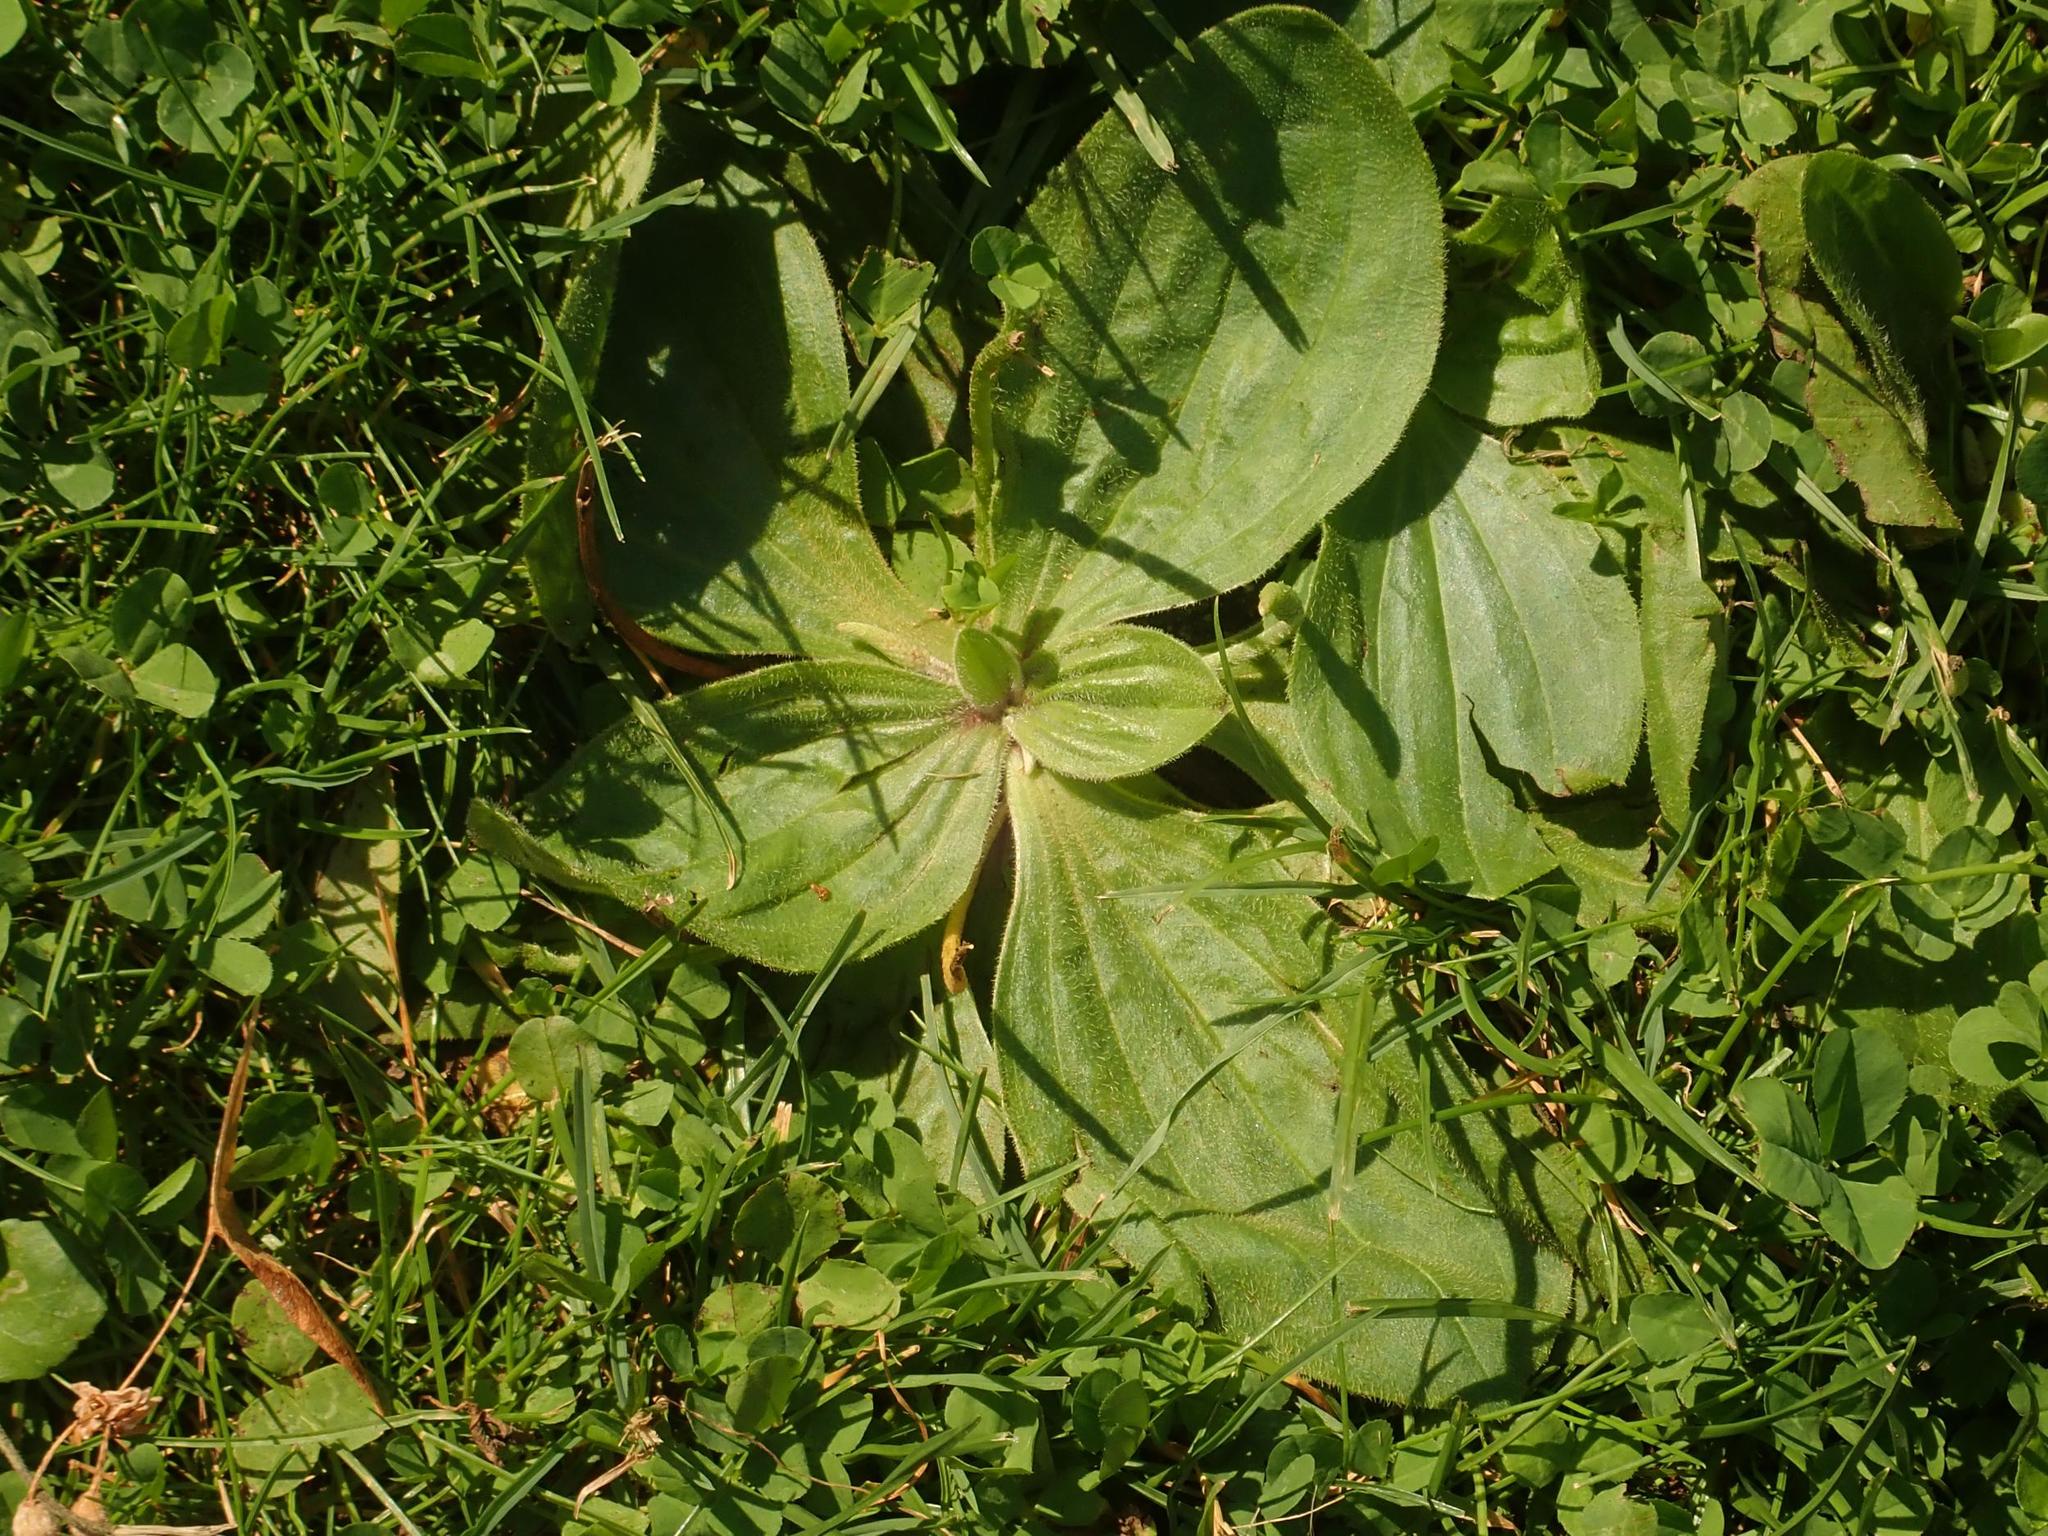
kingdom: Plantae
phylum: Tracheophyta
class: Magnoliopsida
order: Lamiales
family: Plantaginaceae
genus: Plantago
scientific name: Plantago media
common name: Hoary plantain
